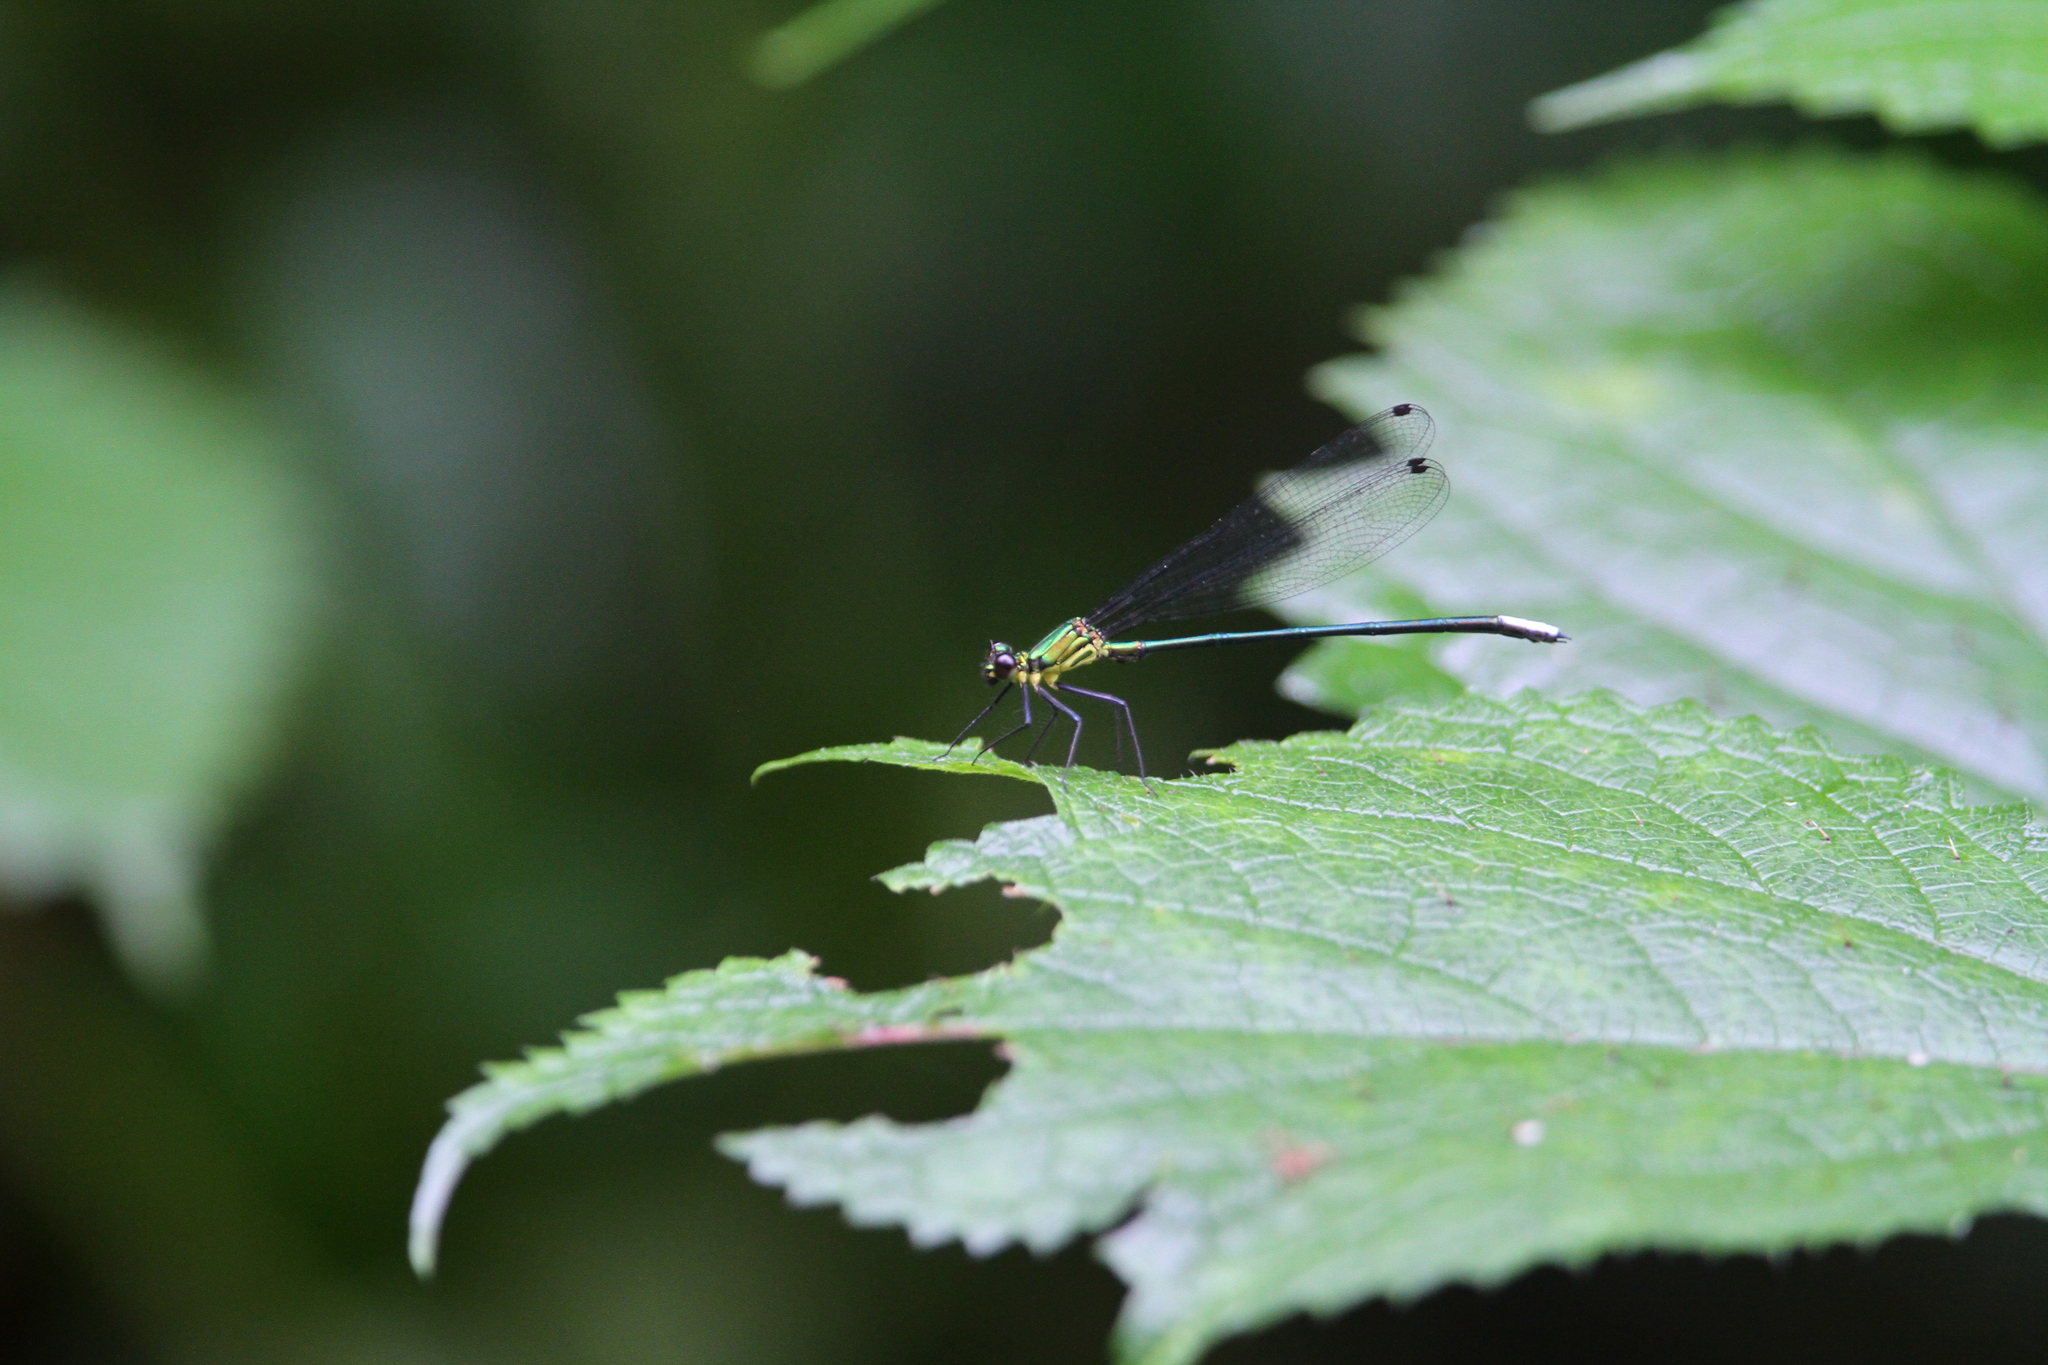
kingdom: Animalia
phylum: Arthropoda
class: Insecta
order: Odonata
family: Calopterygidae
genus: Caliphaea
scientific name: Caliphaea confusa
